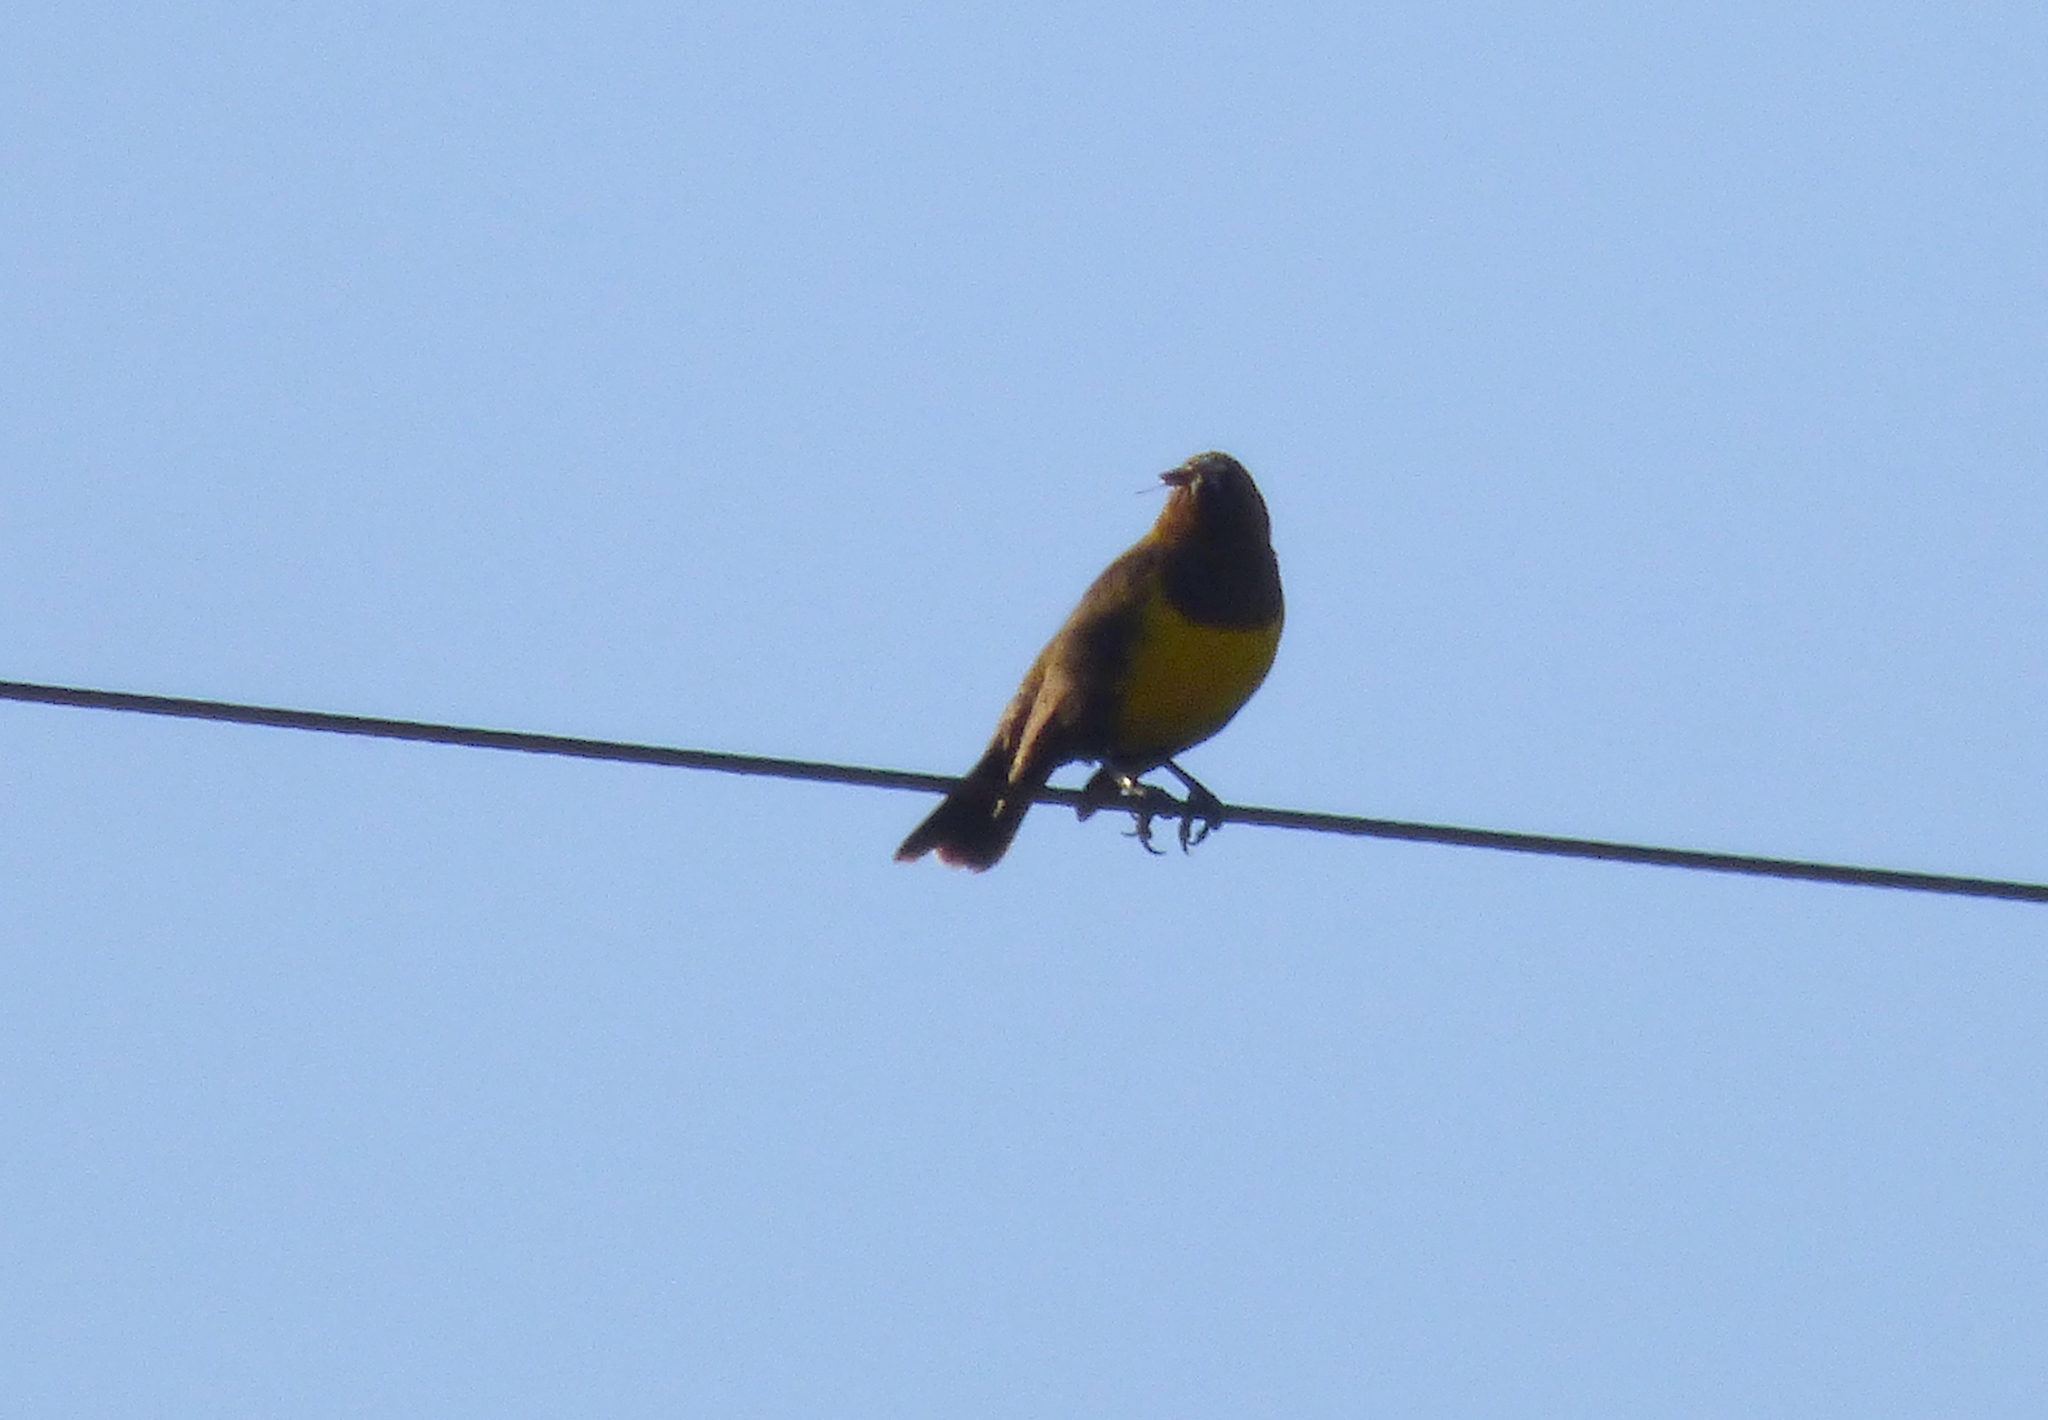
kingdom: Animalia
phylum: Chordata
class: Aves
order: Passeriformes
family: Icteridae
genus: Pseudoleistes
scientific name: Pseudoleistes virescens
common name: Brown-and-yellow marshbird
